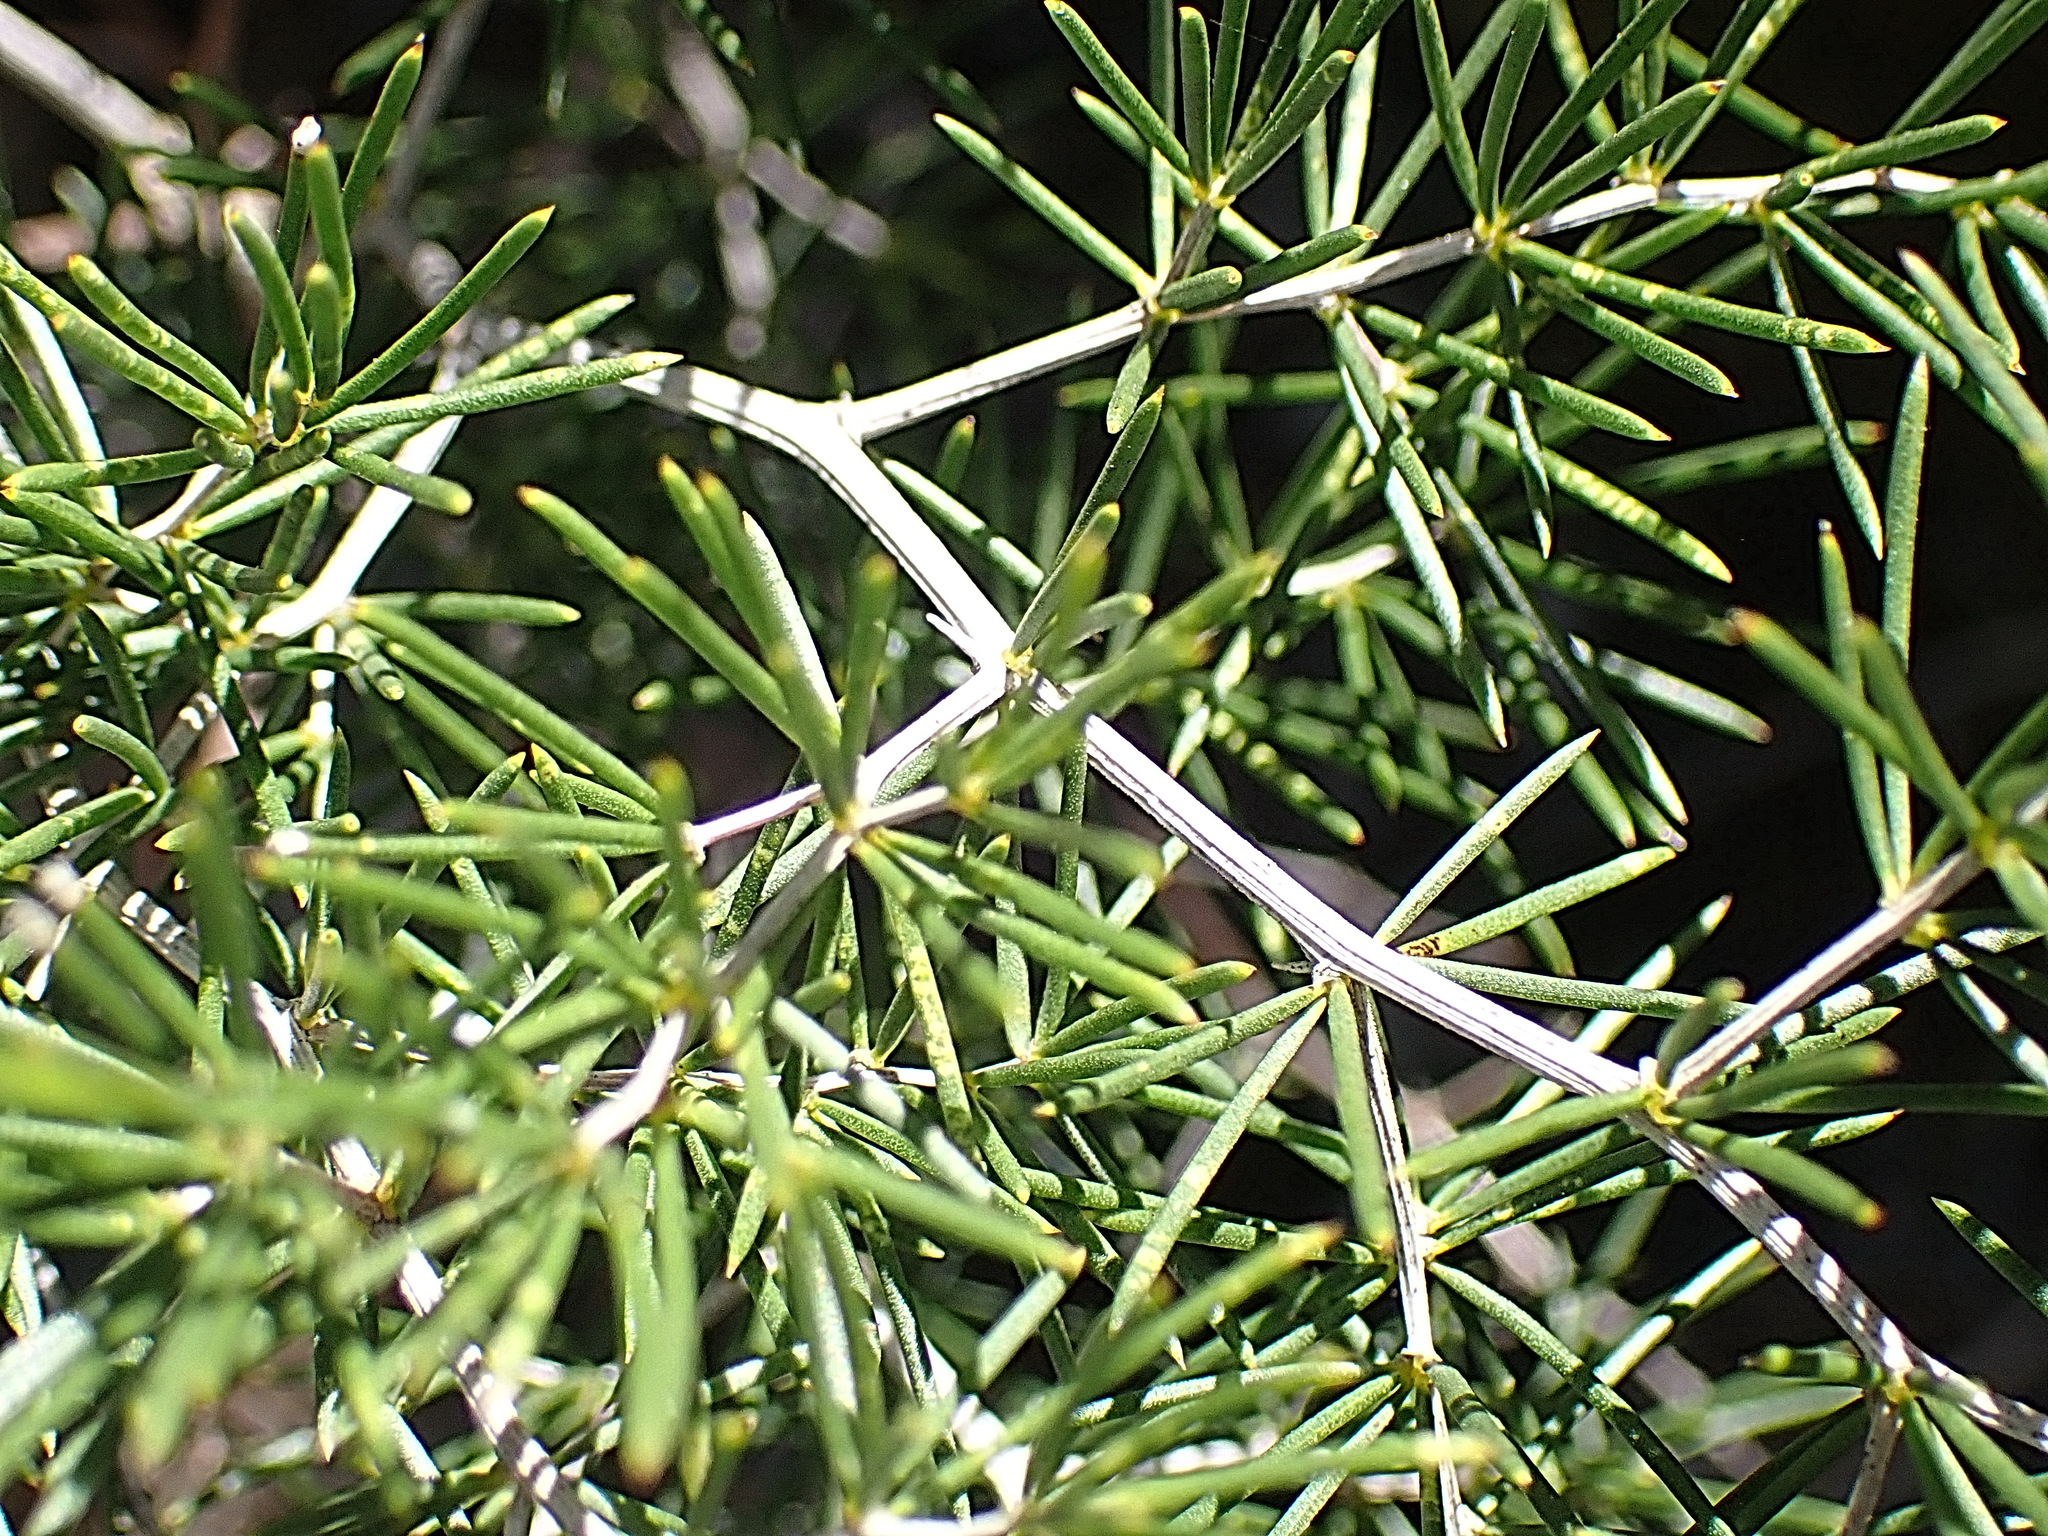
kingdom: Plantae
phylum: Tracheophyta
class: Liliopsida
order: Asparagales
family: Asparagaceae
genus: Asparagus
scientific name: Asparagus lignosus
